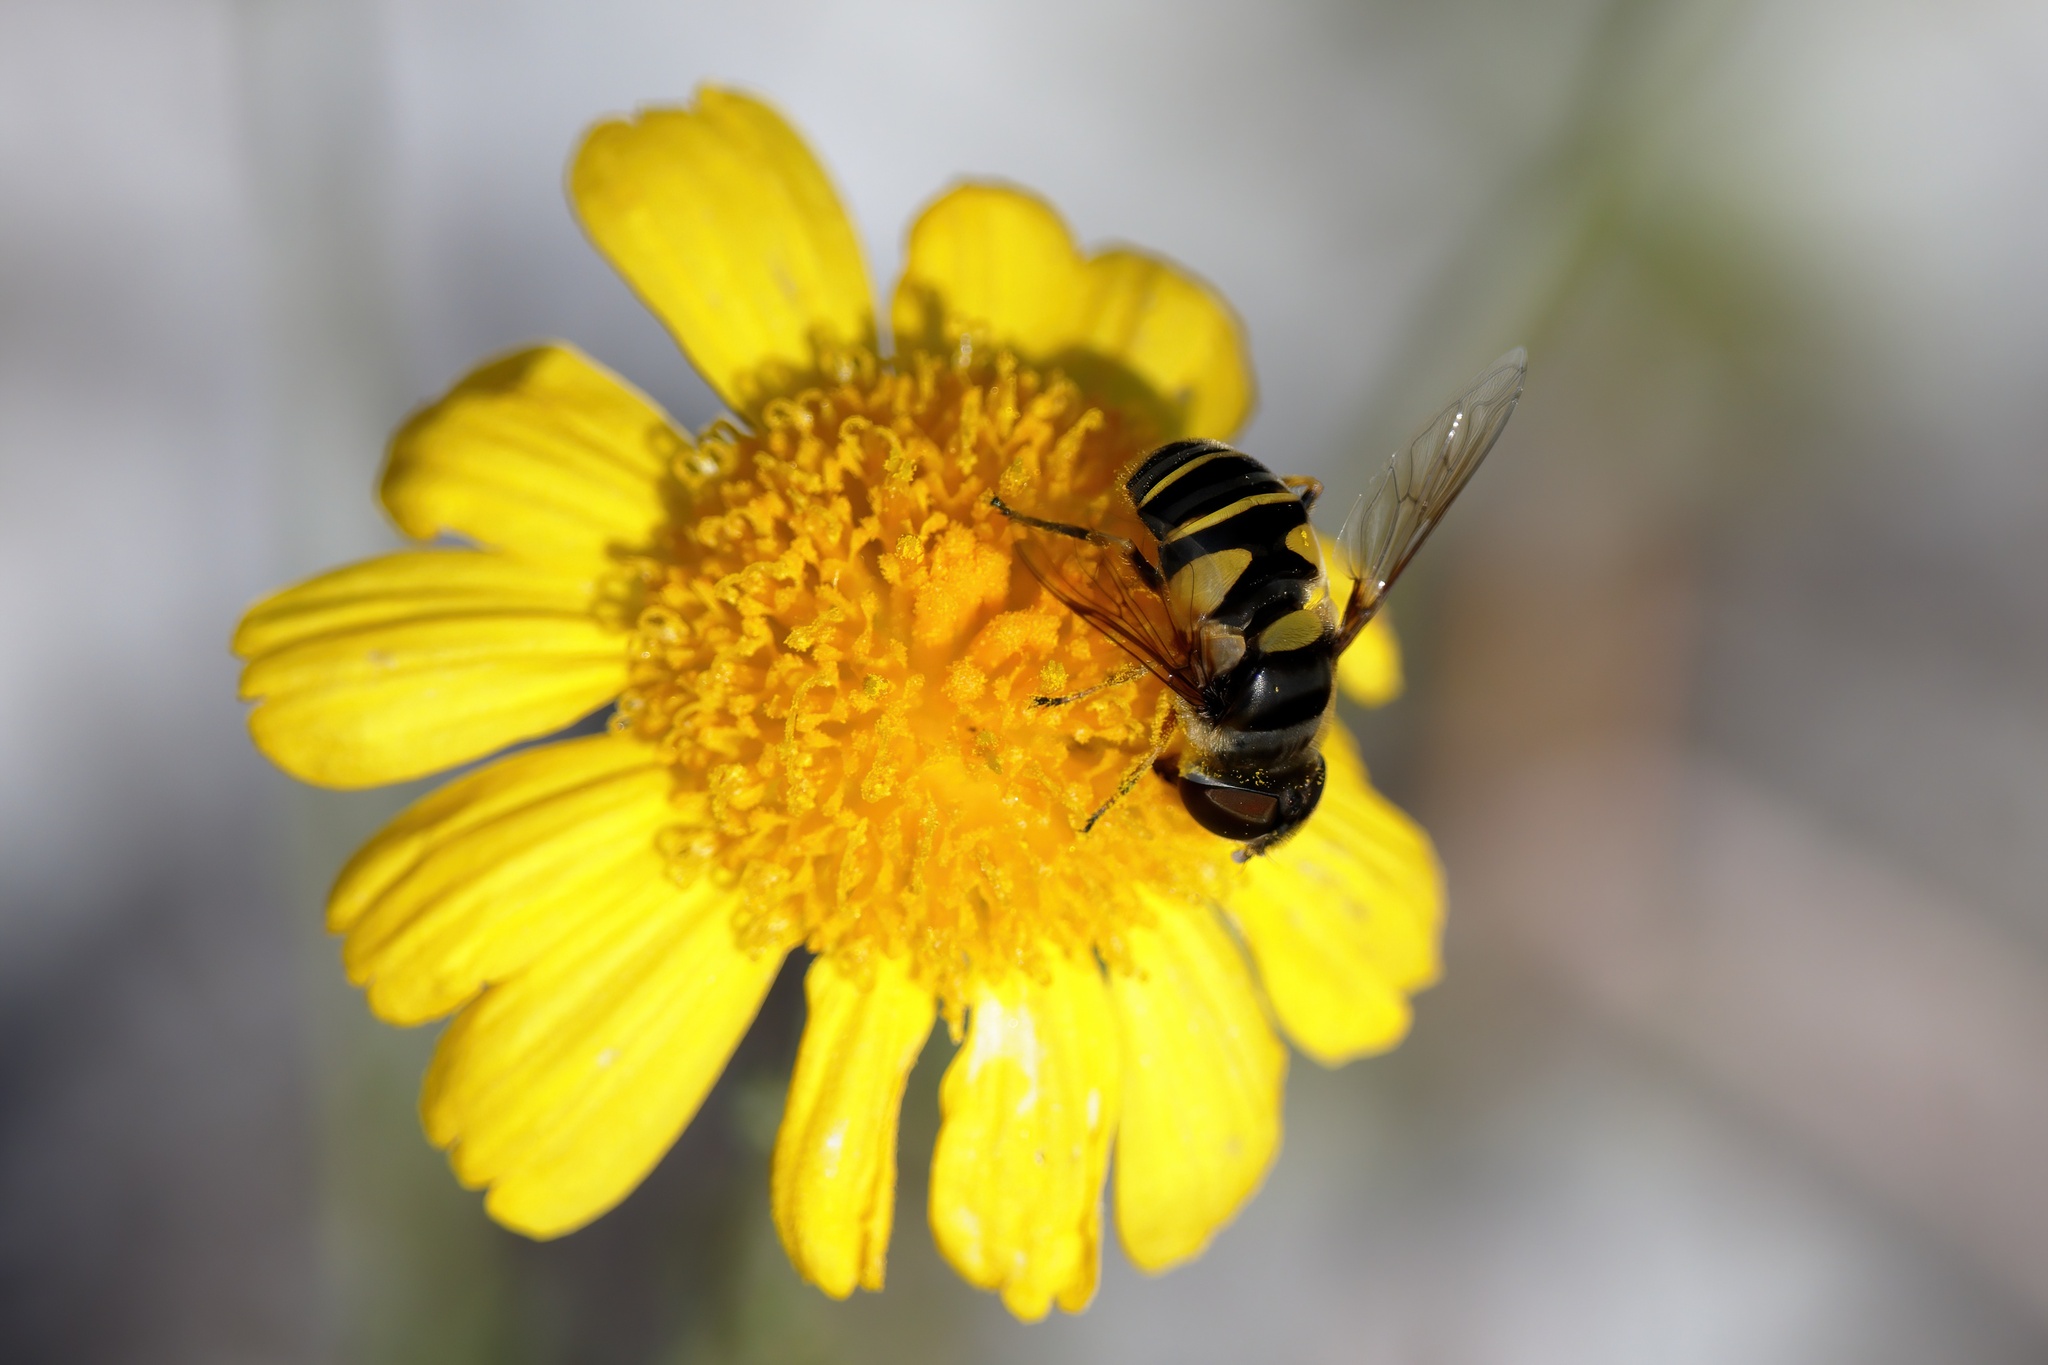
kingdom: Animalia
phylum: Arthropoda
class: Insecta
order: Diptera
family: Syrphidae
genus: Eristalis
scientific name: Eristalis transversa
